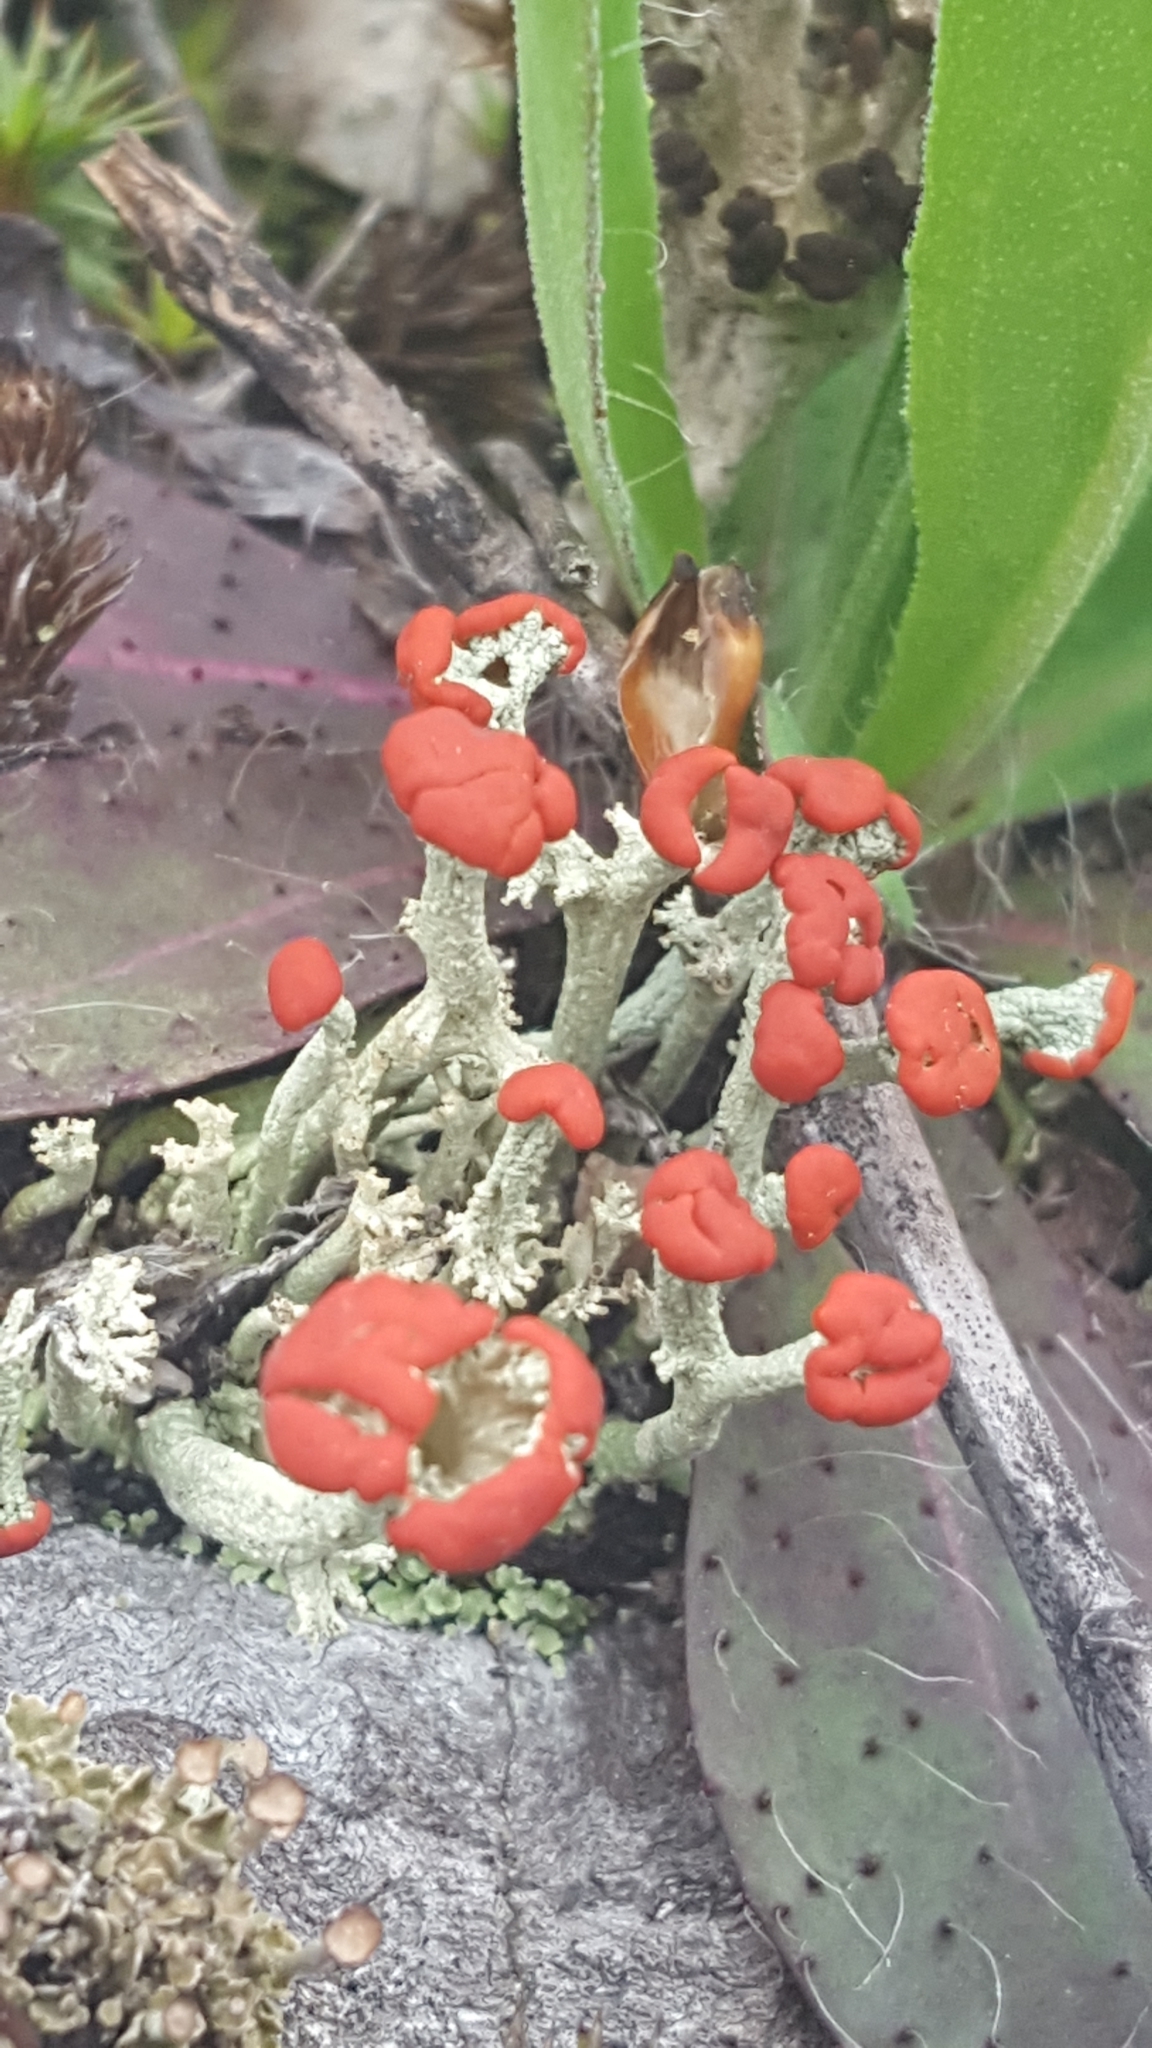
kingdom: Fungi
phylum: Ascomycota
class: Lecanoromycetes
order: Lecanorales
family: Cladoniaceae
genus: Cladonia
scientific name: Cladonia cristatella
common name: British soldier lichen
